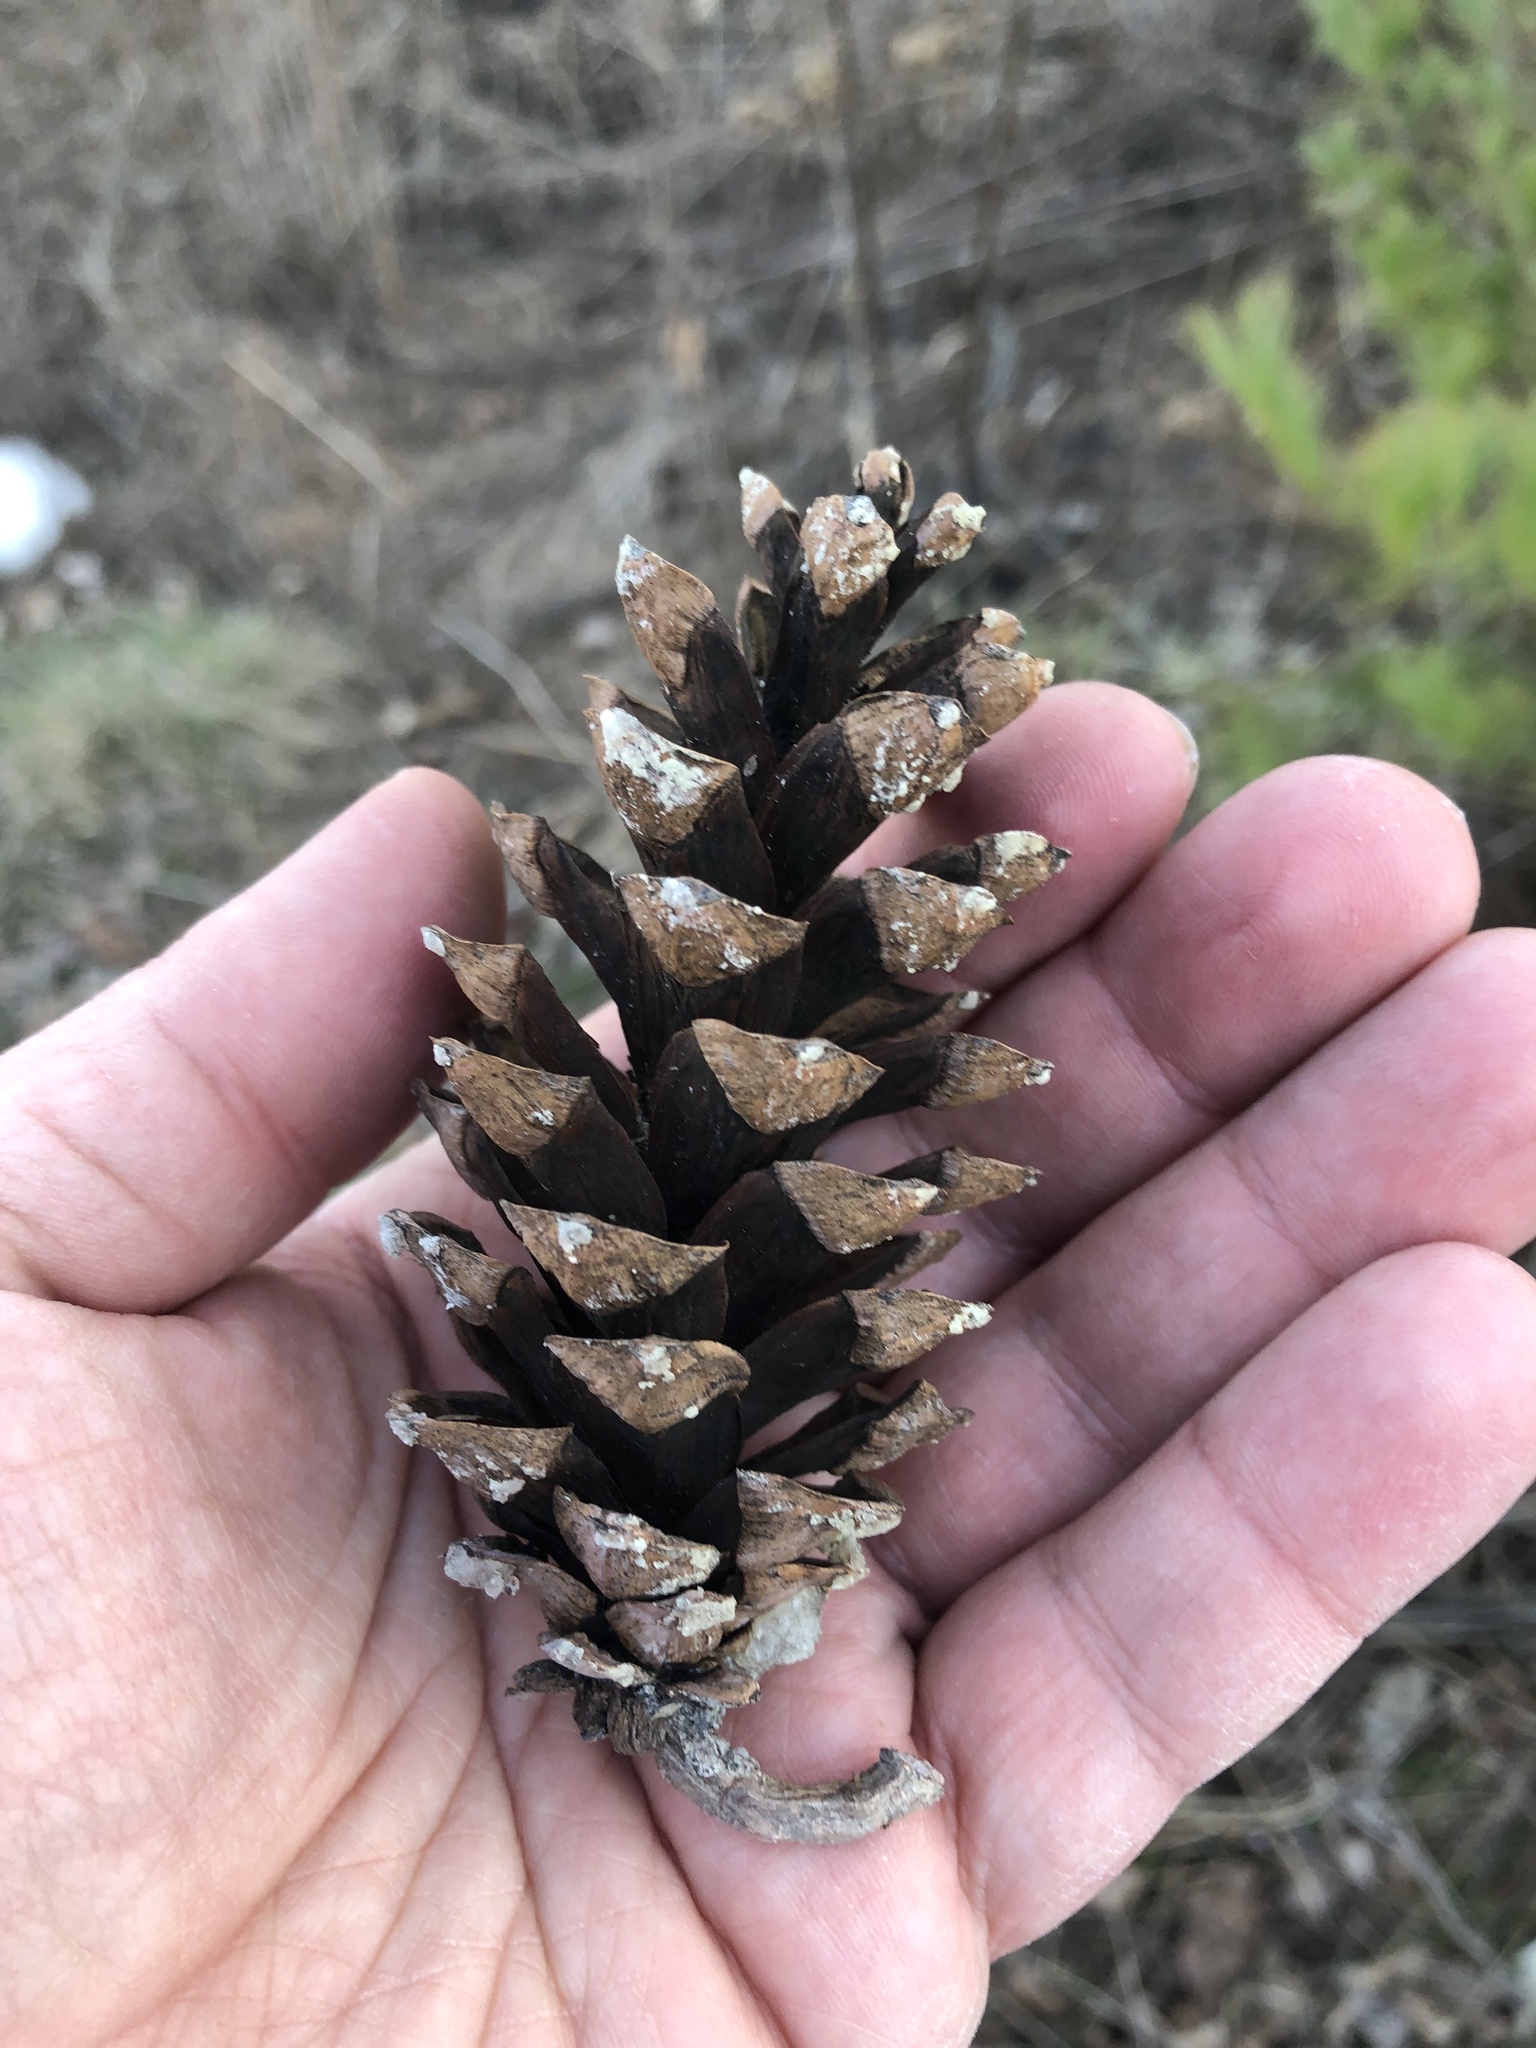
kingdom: Plantae
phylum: Tracheophyta
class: Pinopsida
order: Pinales
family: Pinaceae
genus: Pinus
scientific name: Pinus strobus
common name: Weymouth pine
